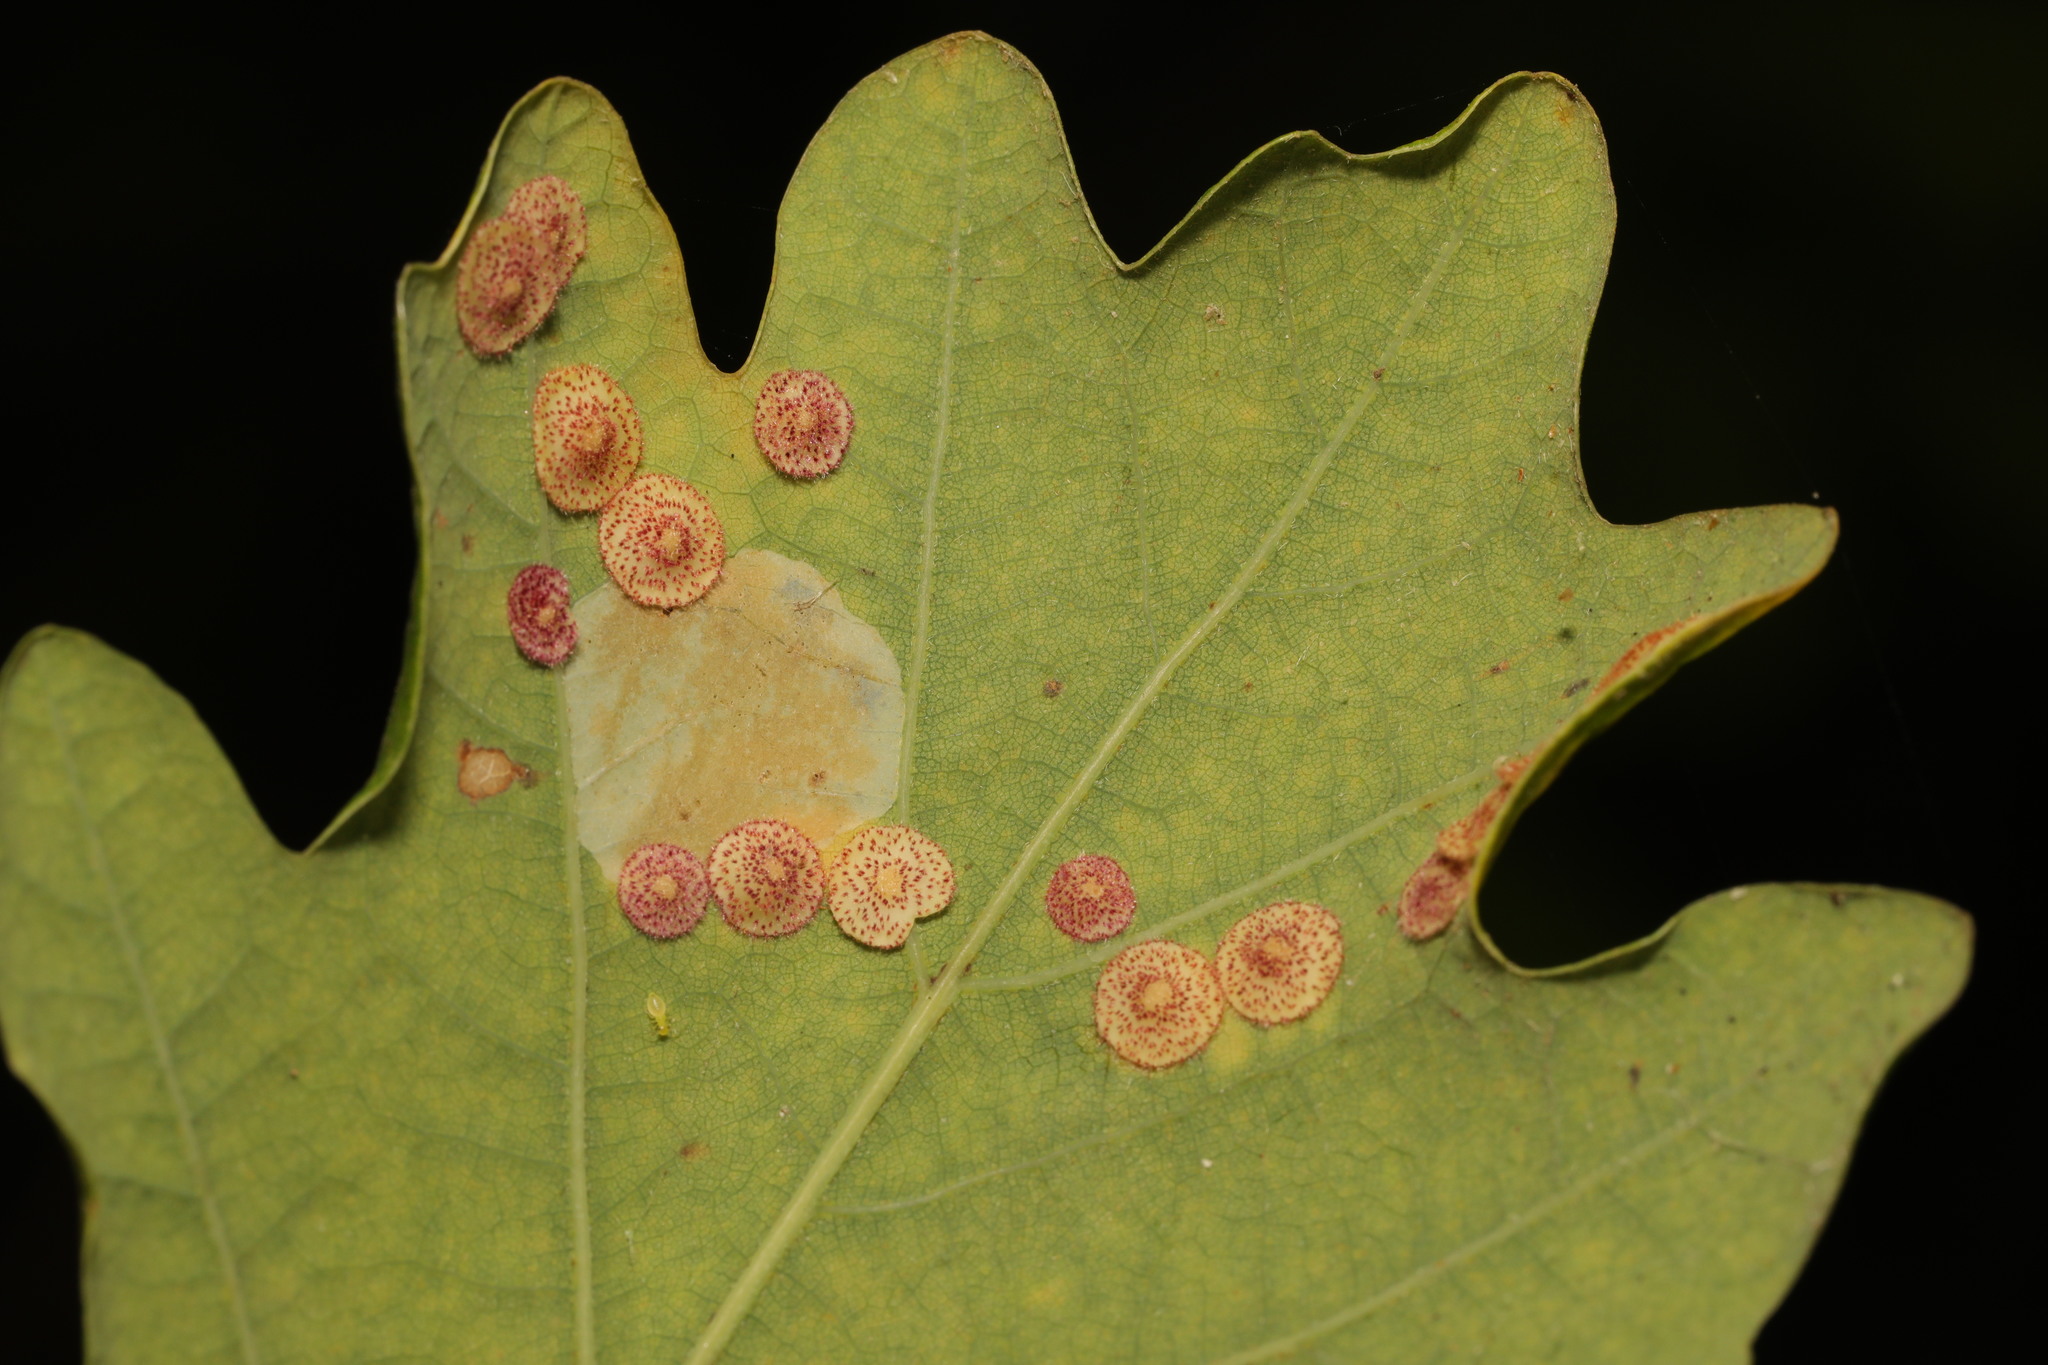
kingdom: Animalia
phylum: Arthropoda
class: Insecta
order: Hymenoptera
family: Cynipidae
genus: Neuroterus
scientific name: Neuroterus quercusbaccarum
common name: Common spangle gall
